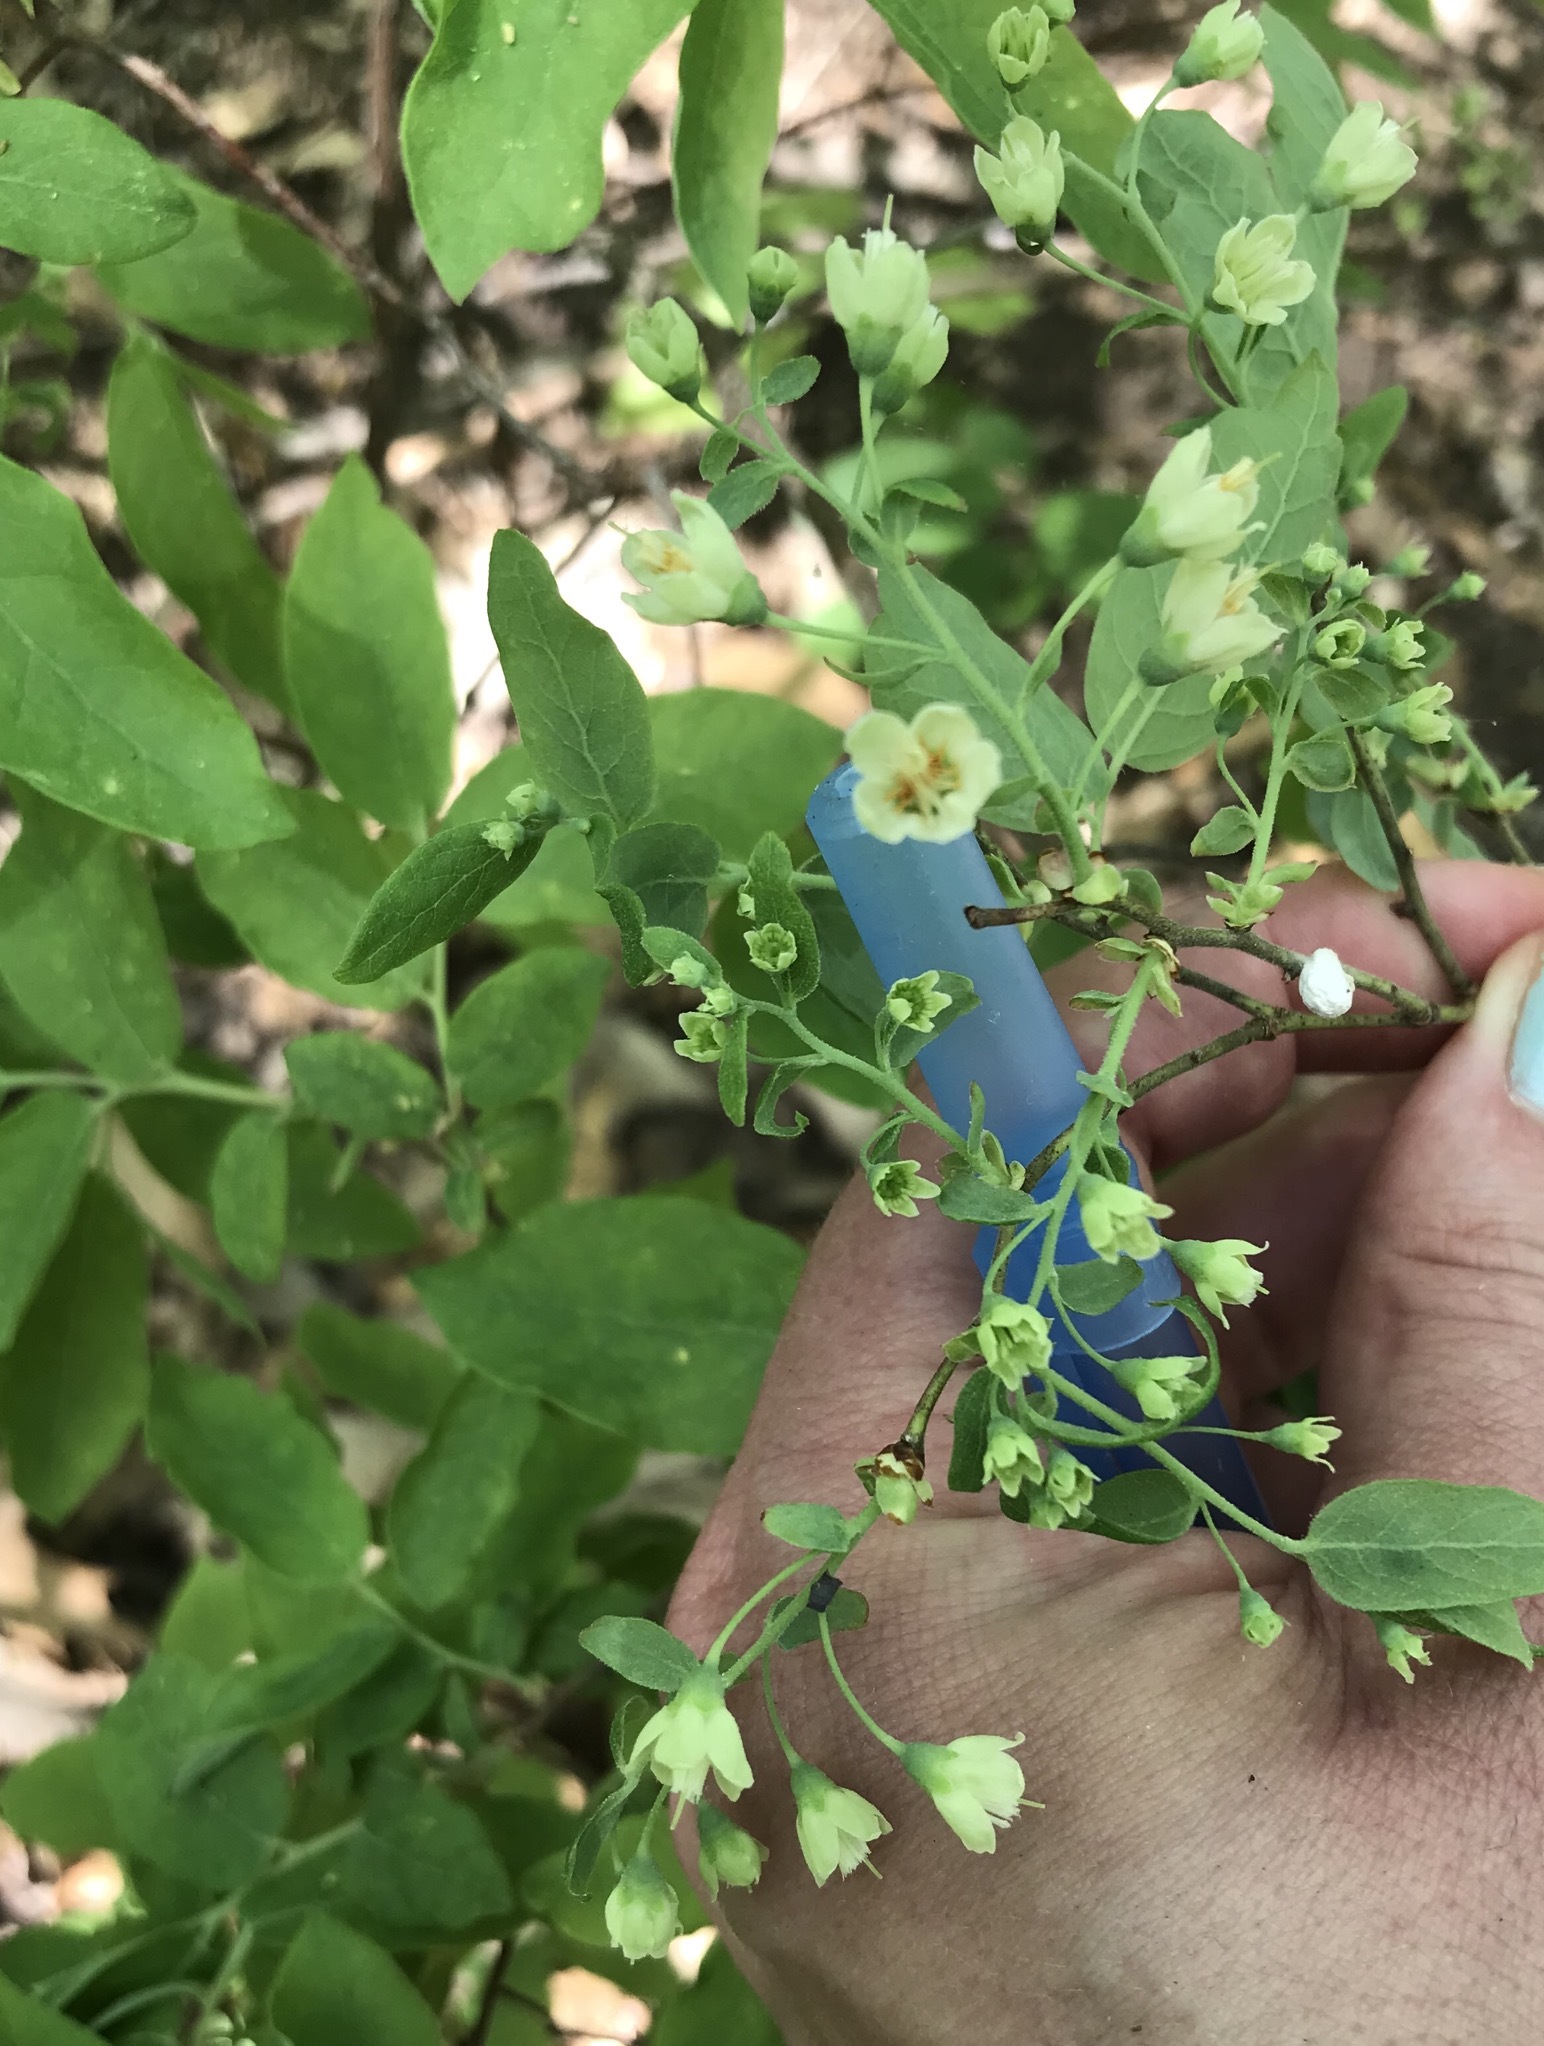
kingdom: Plantae
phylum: Tracheophyta
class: Magnoliopsida
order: Ericales
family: Ericaceae
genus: Vaccinium
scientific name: Vaccinium stamineum
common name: Deerberry
